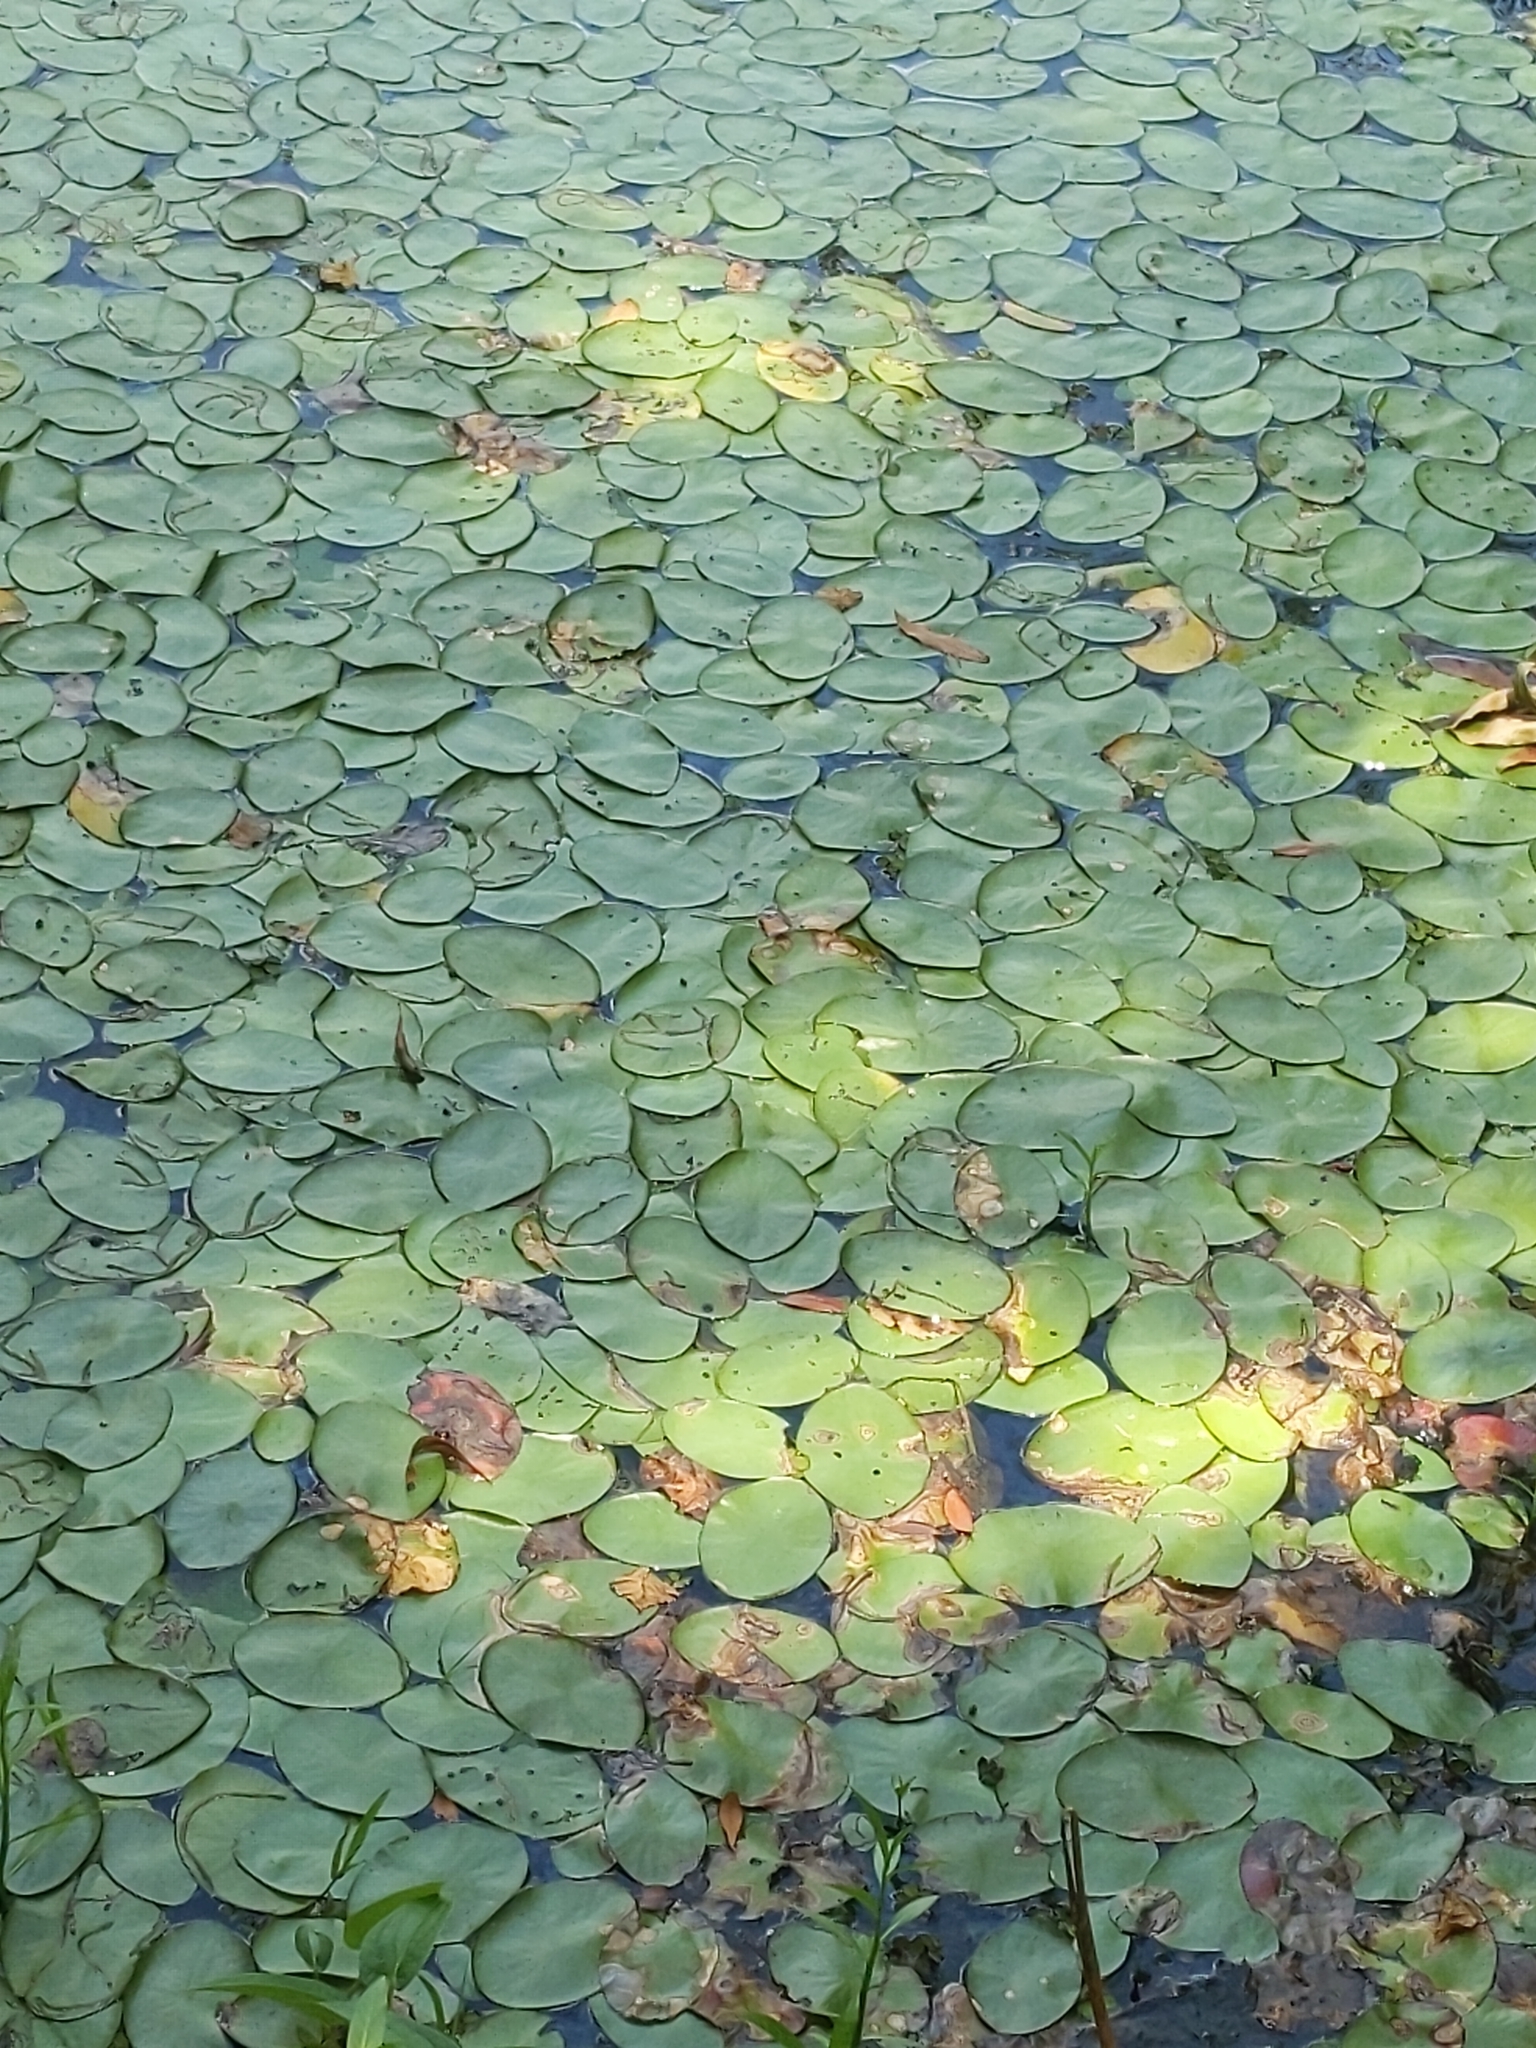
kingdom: Plantae
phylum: Tracheophyta
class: Magnoliopsida
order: Nymphaeales
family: Cabombaceae
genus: Brasenia
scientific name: Brasenia schreberi
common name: Water-shield
